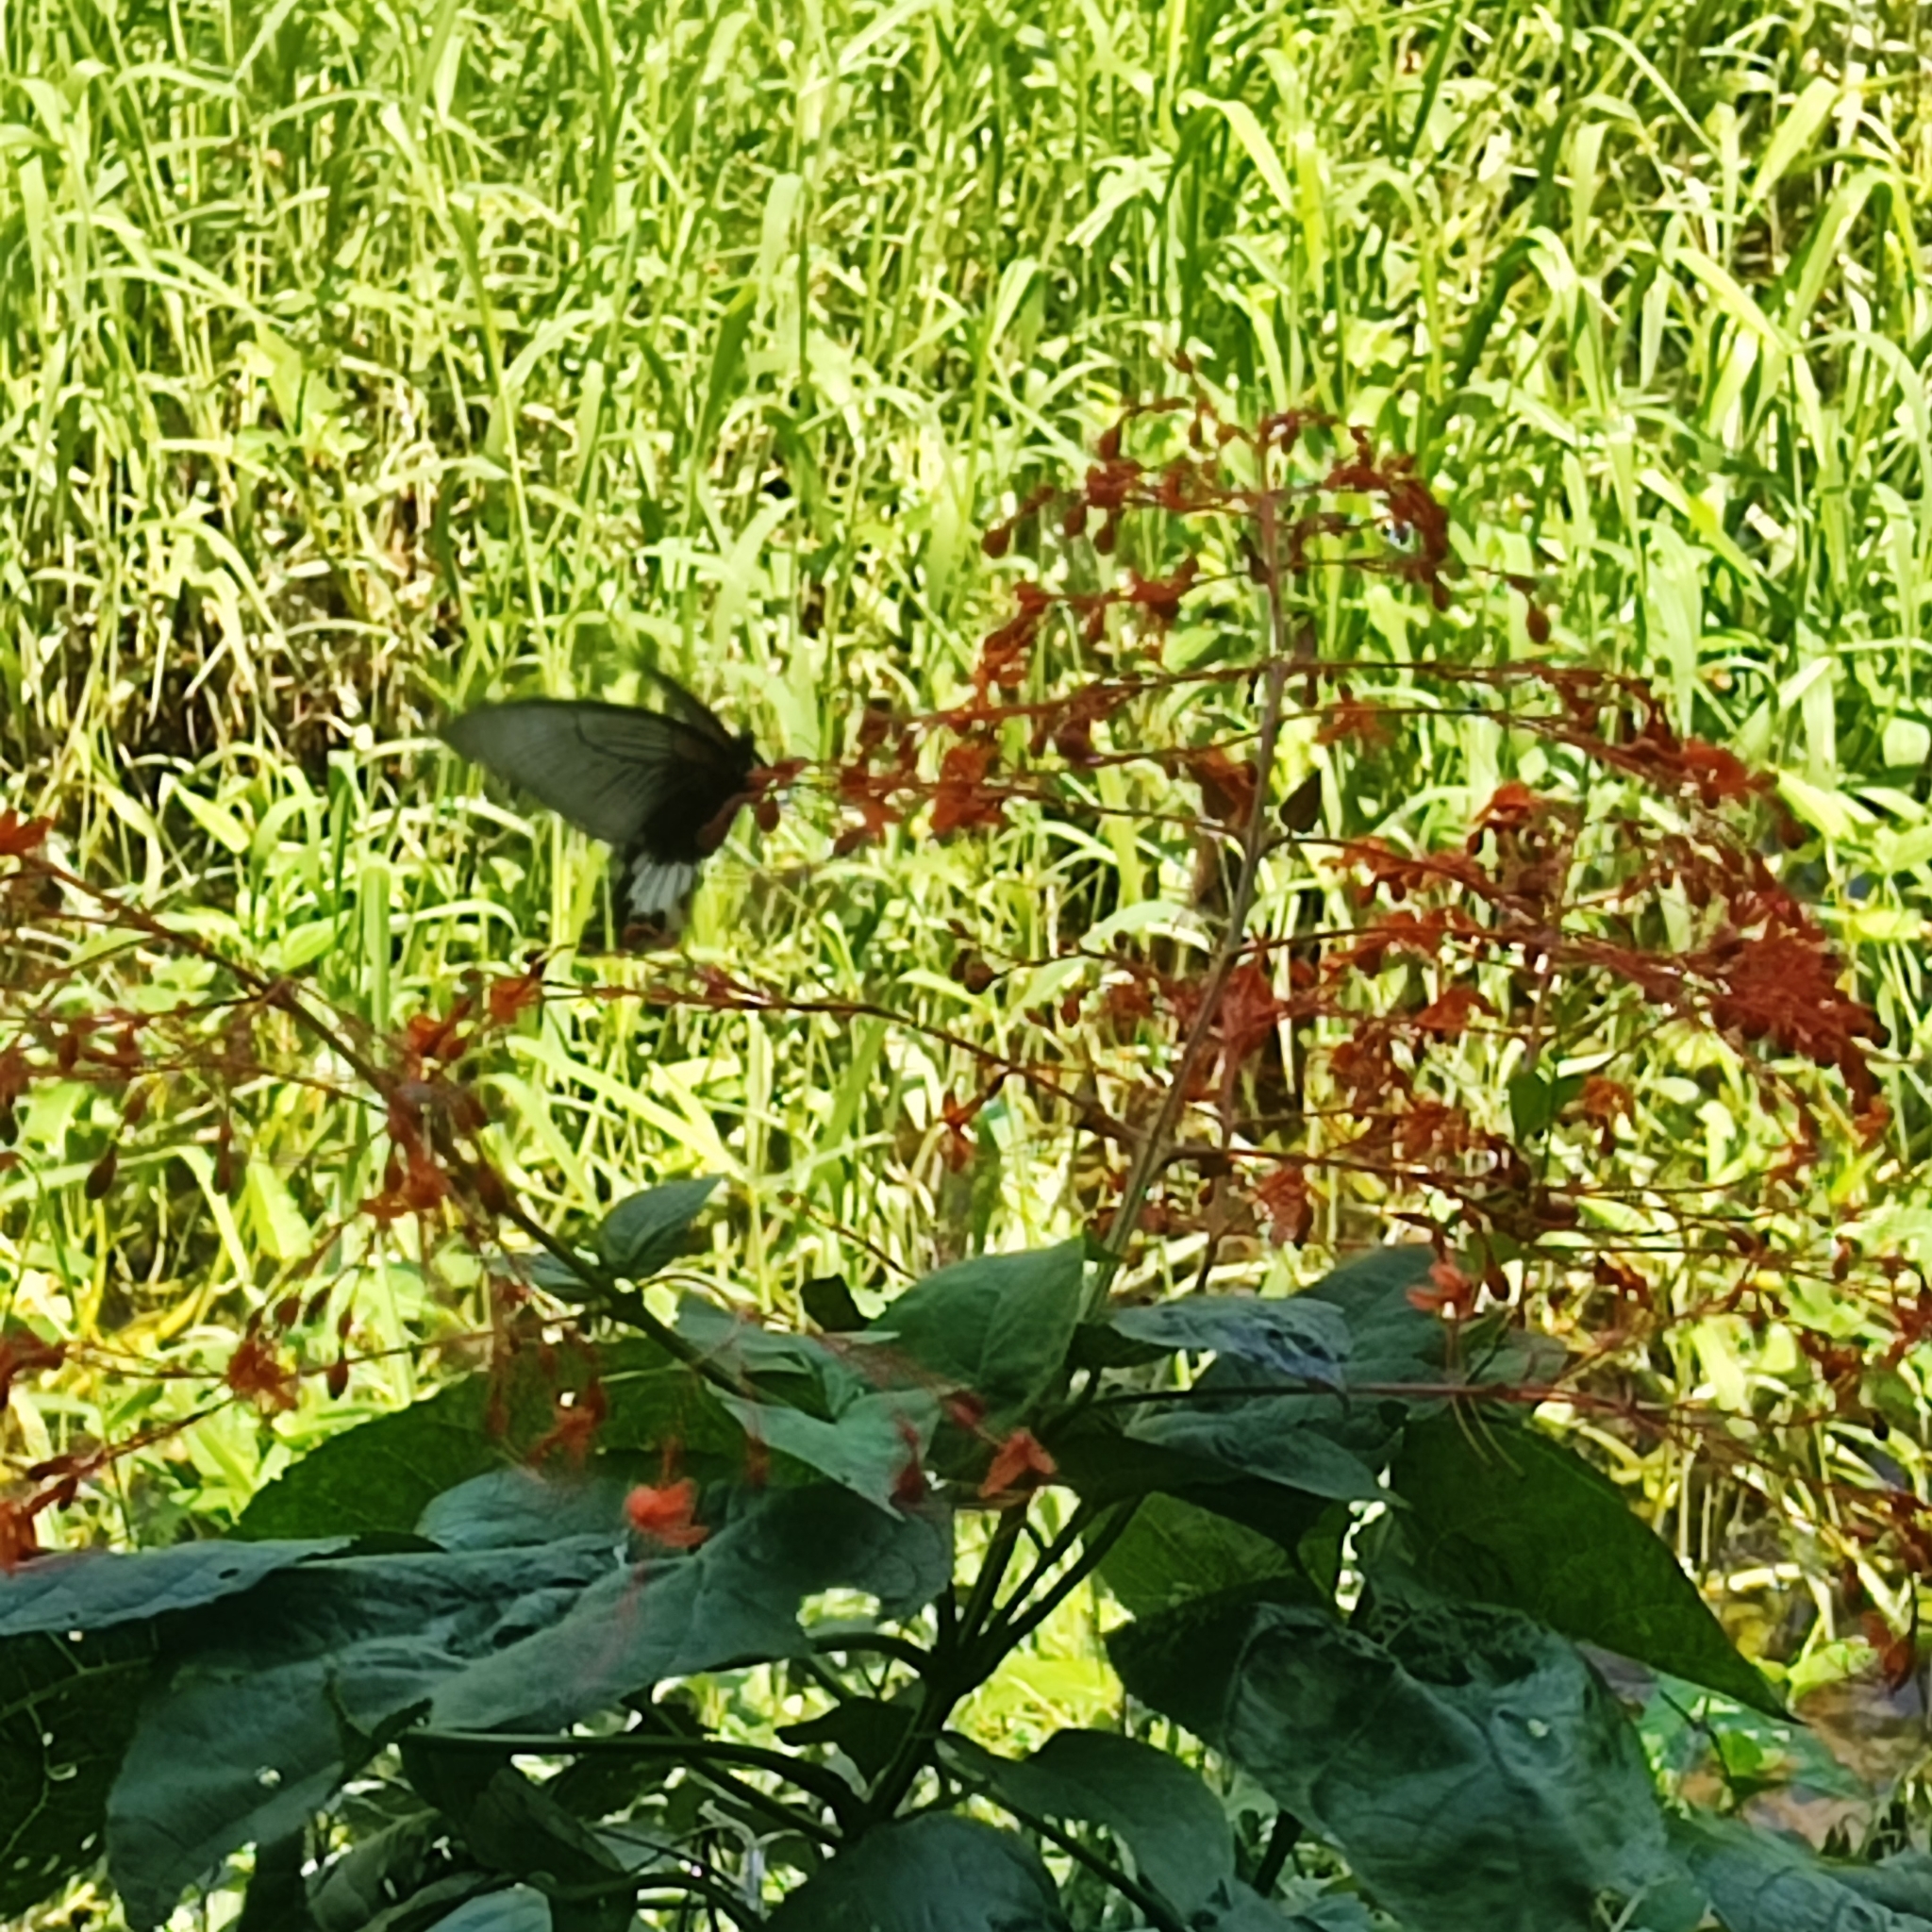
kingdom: Animalia
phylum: Arthropoda
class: Insecta
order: Lepidoptera
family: Papilionidae
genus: Papilio
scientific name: Papilio memnon
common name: Great mormon
